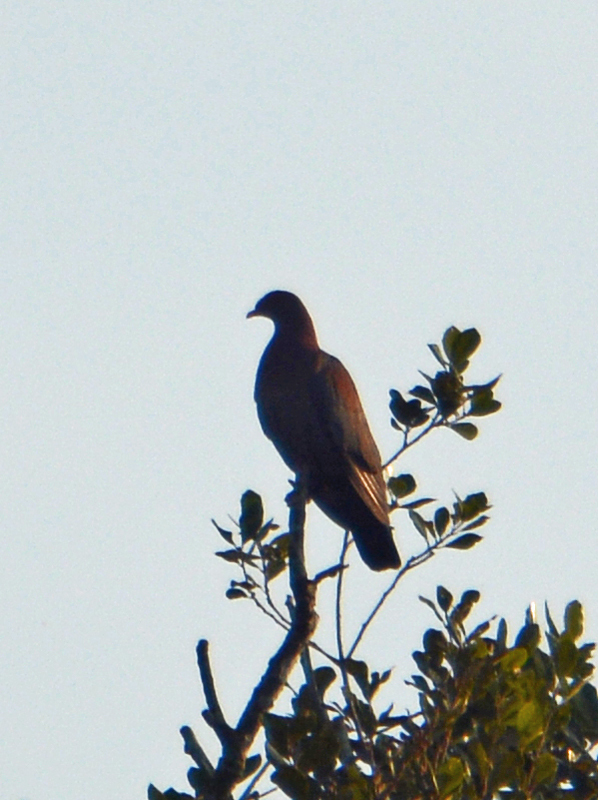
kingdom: Animalia
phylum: Chordata
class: Aves
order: Columbiformes
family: Columbidae
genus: Patagioenas
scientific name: Patagioenas flavirostris
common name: Red-billed pigeon
